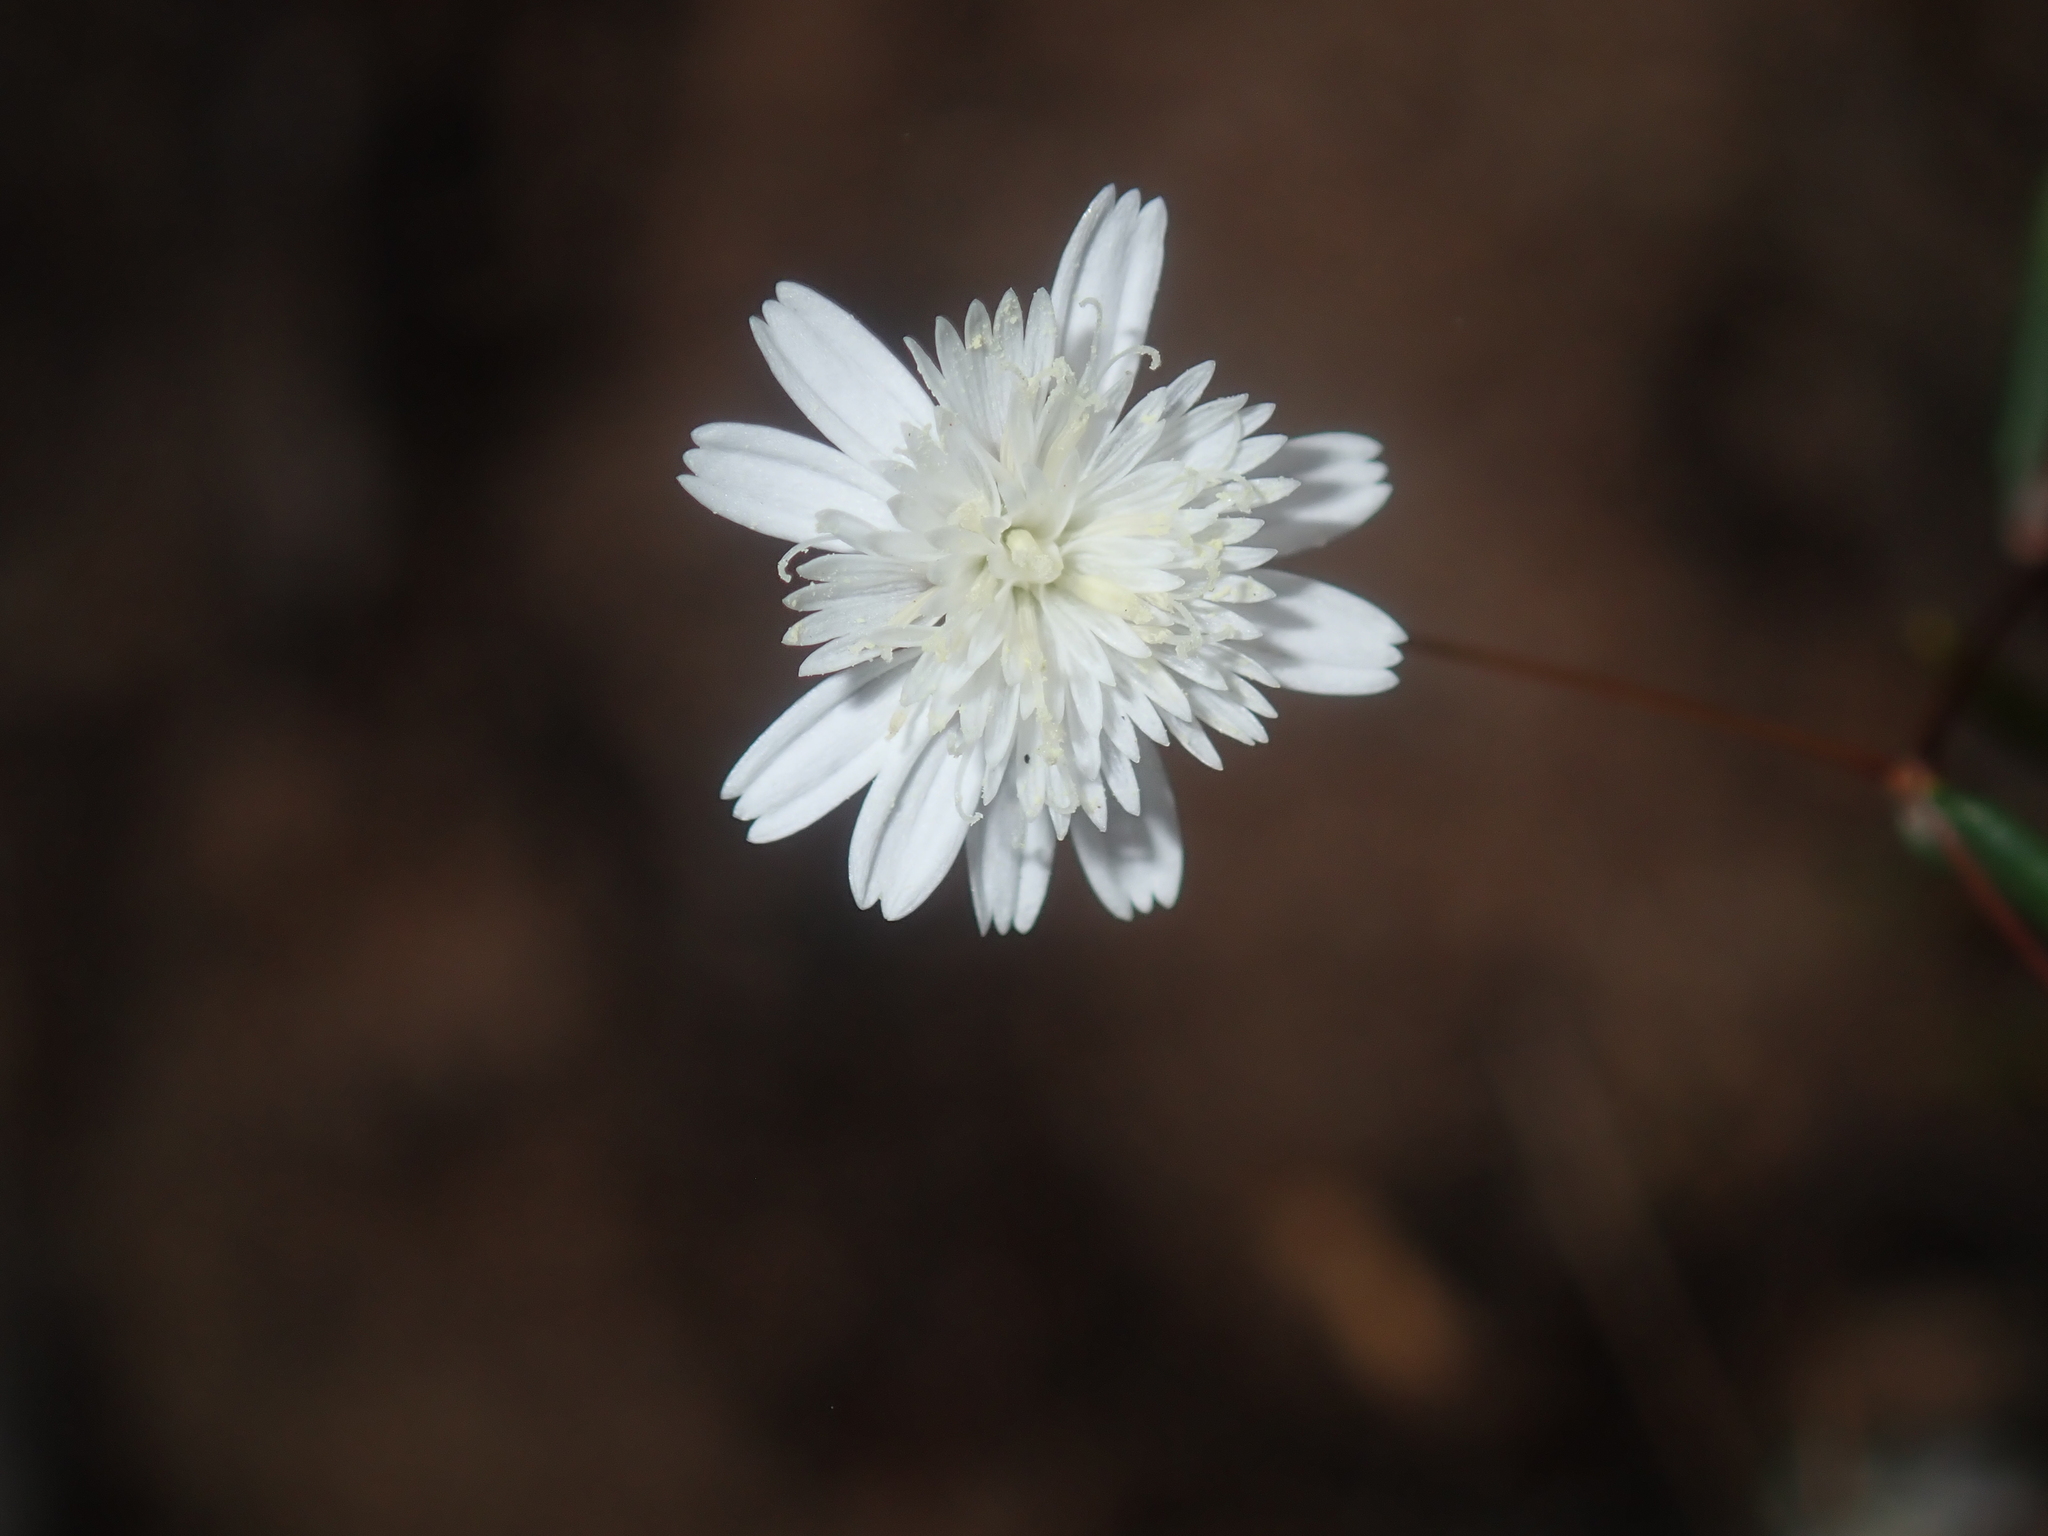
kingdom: Plantae
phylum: Tracheophyta
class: Magnoliopsida
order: Asterales
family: Asteraceae
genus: Siemssenia
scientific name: Siemssenia capillaris
